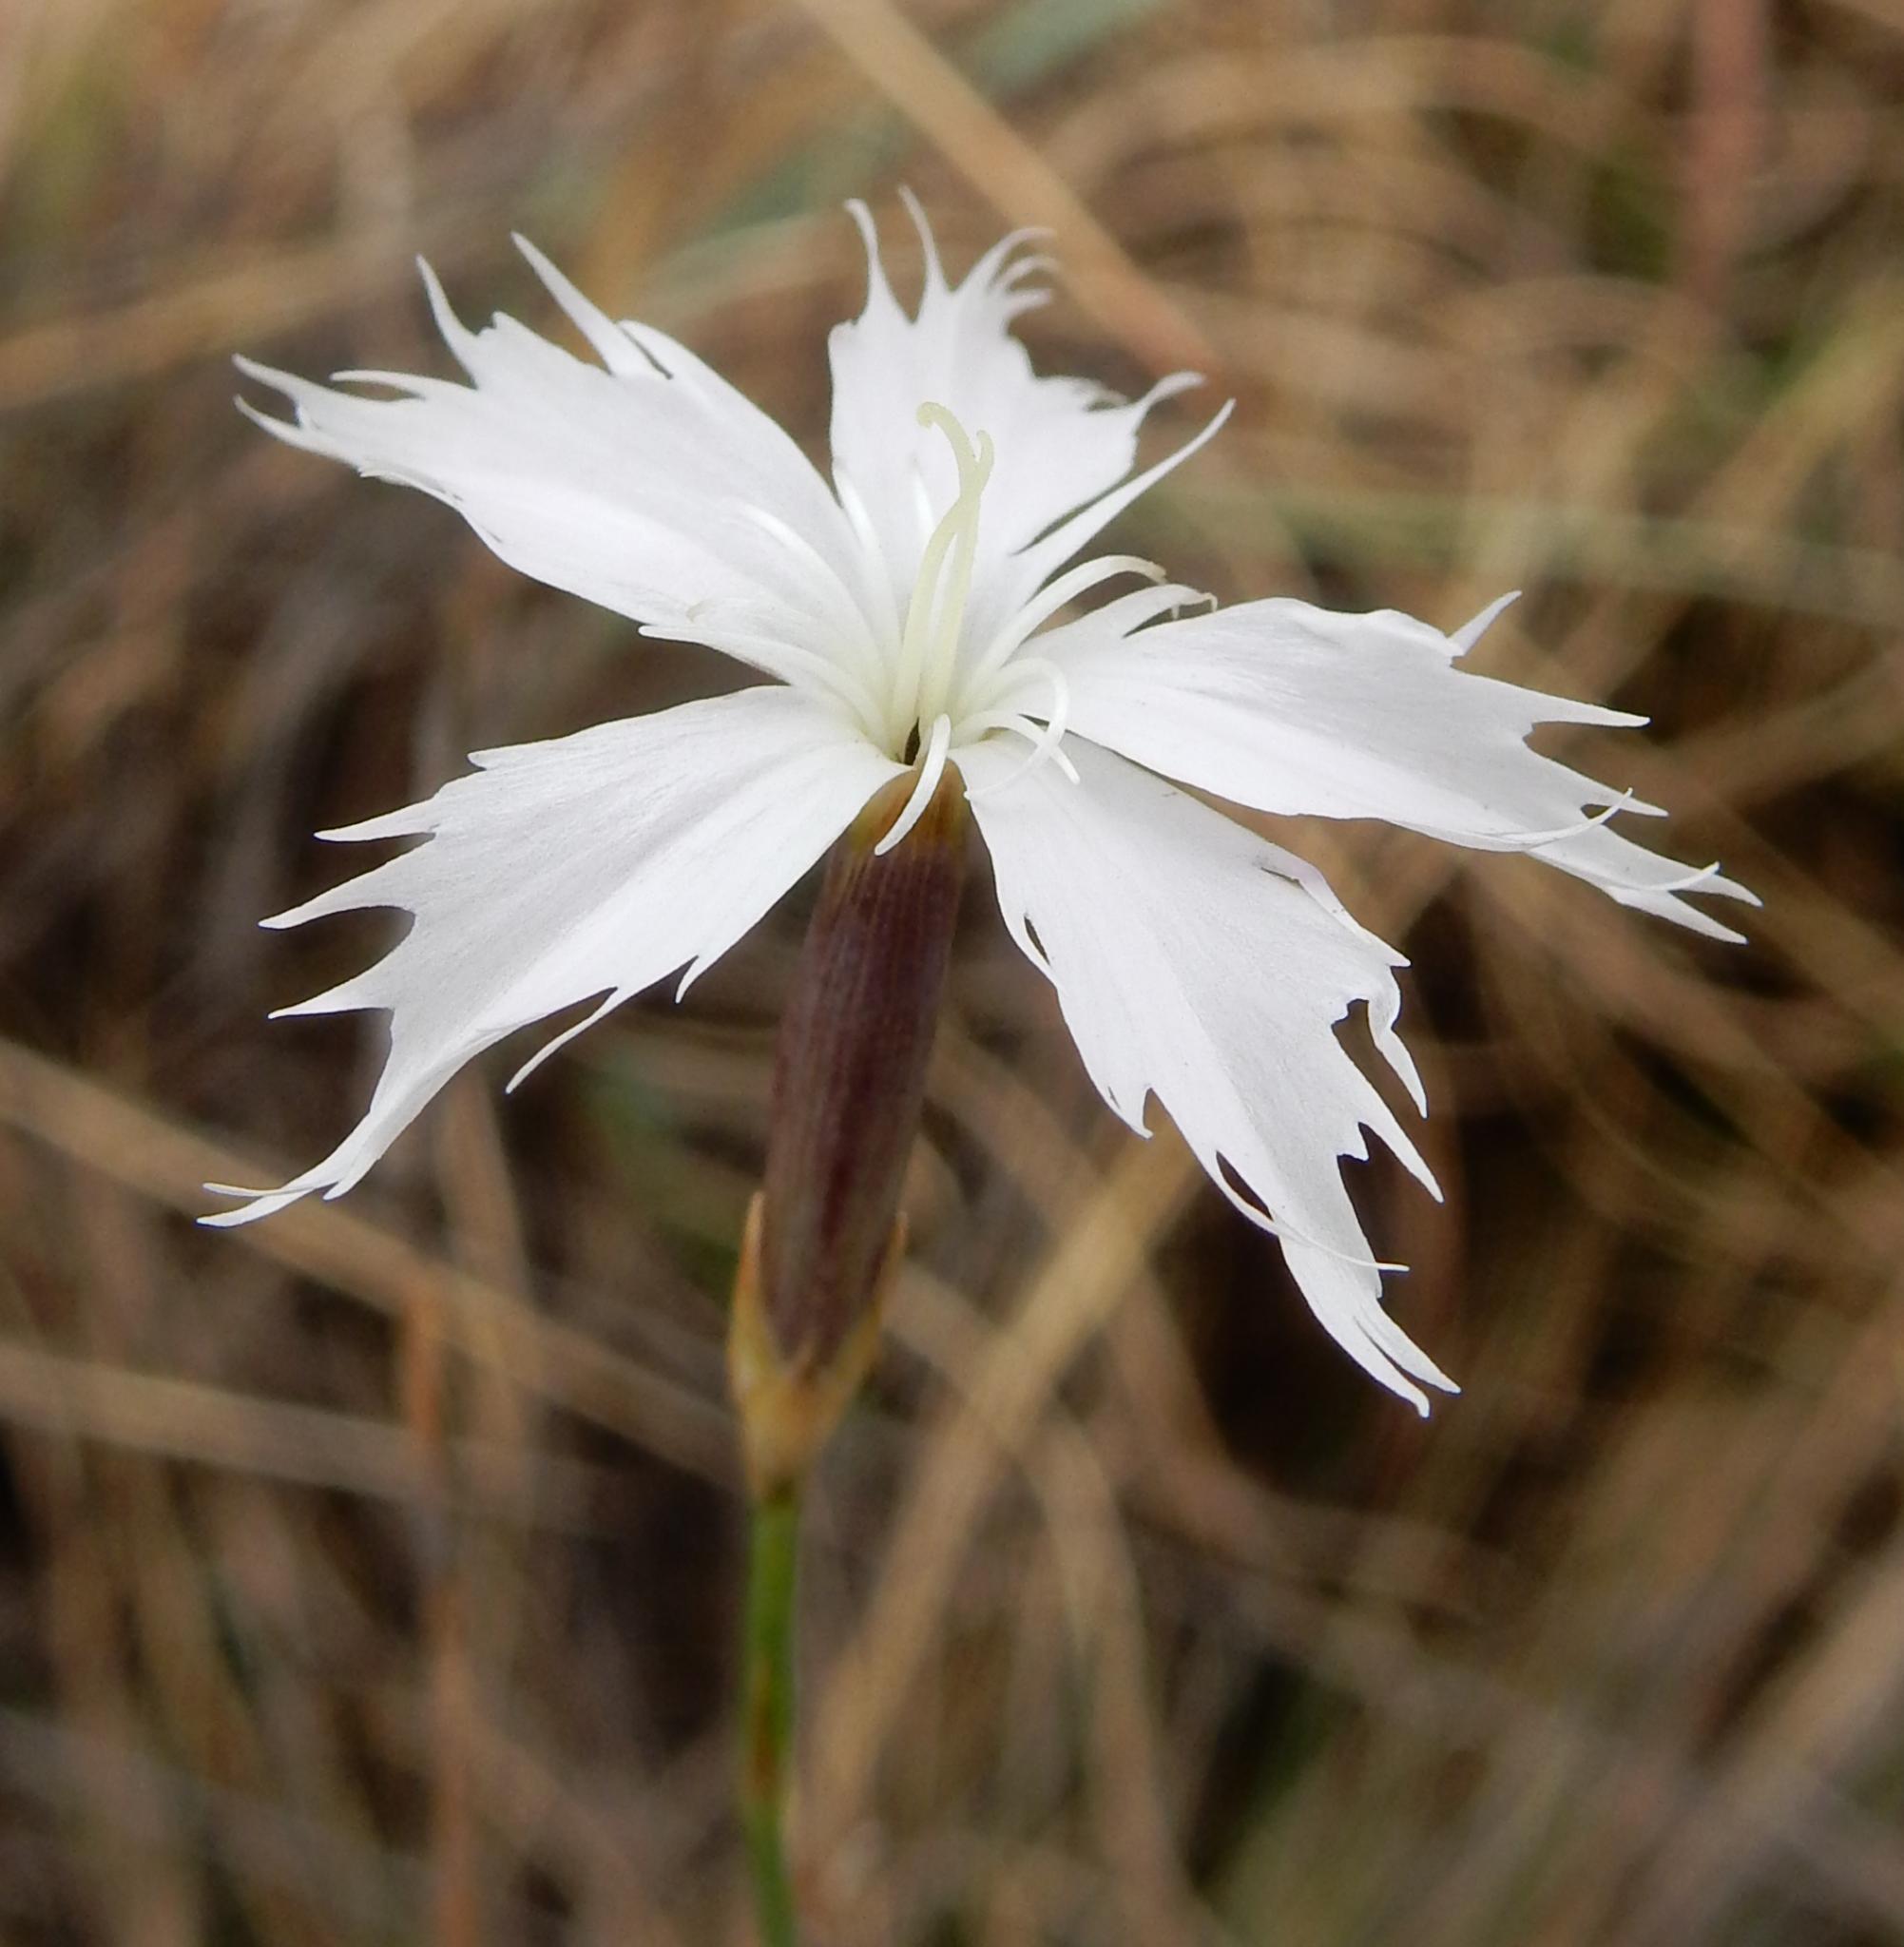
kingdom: Plantae
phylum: Tracheophyta
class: Magnoliopsida
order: Caryophyllales
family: Caryophyllaceae
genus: Dianthus
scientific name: Dianthus mooiensis
